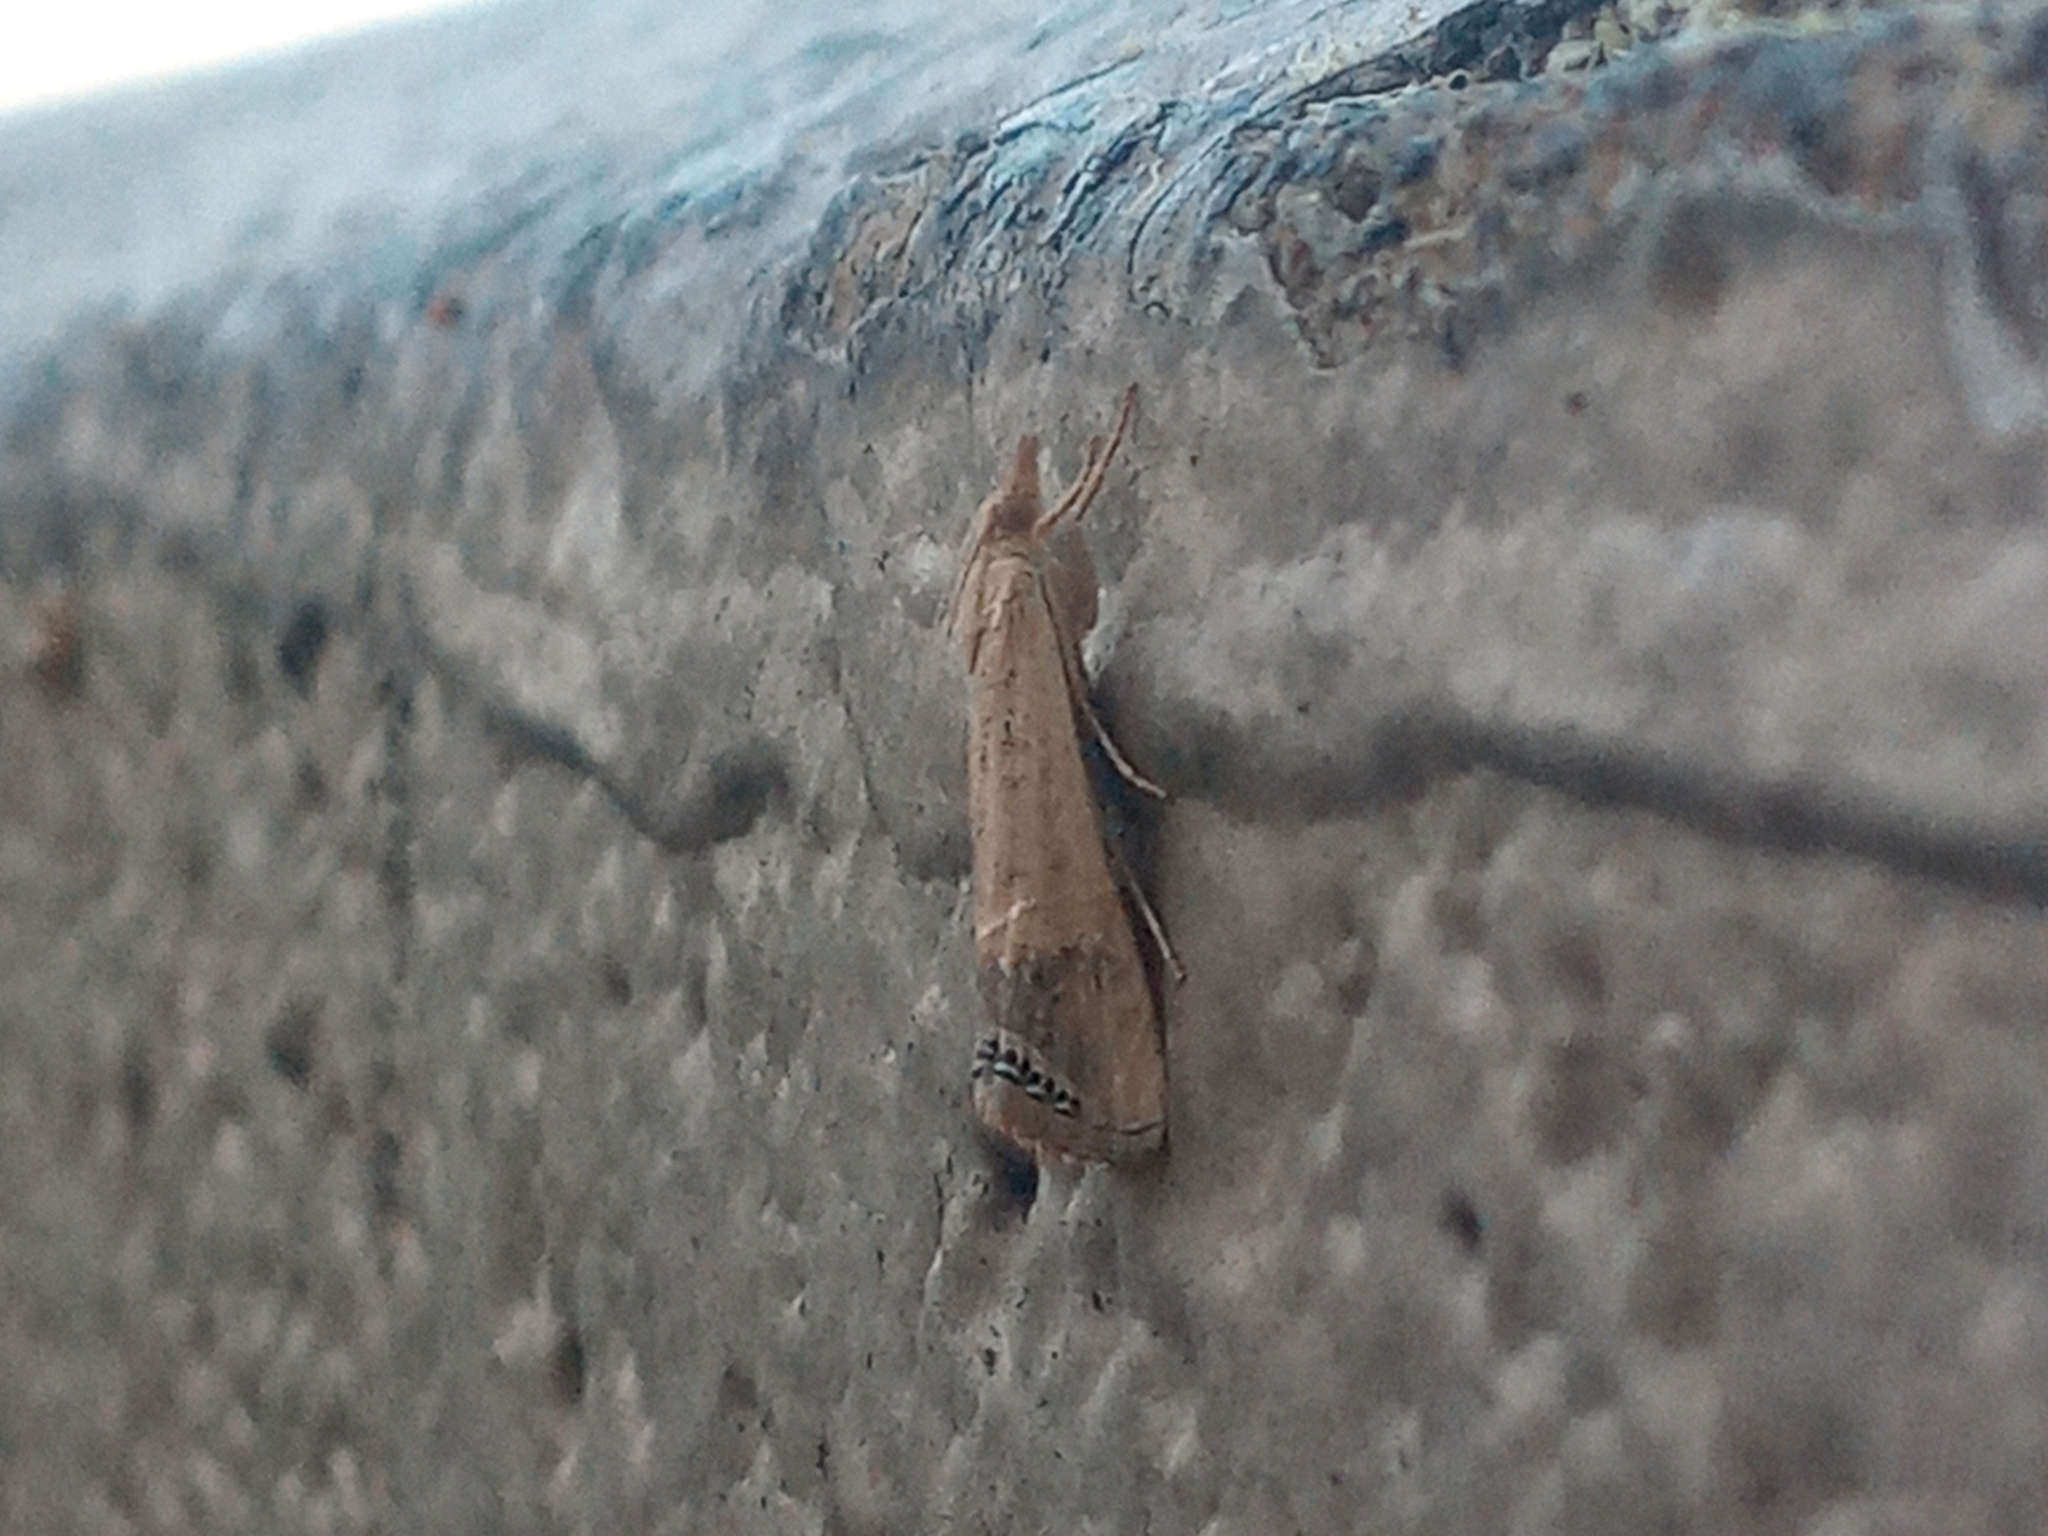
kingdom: Animalia
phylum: Arthropoda
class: Insecta
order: Lepidoptera
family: Crambidae
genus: Euchromius
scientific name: Euchromius ocellea
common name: Necklace veneer moth
